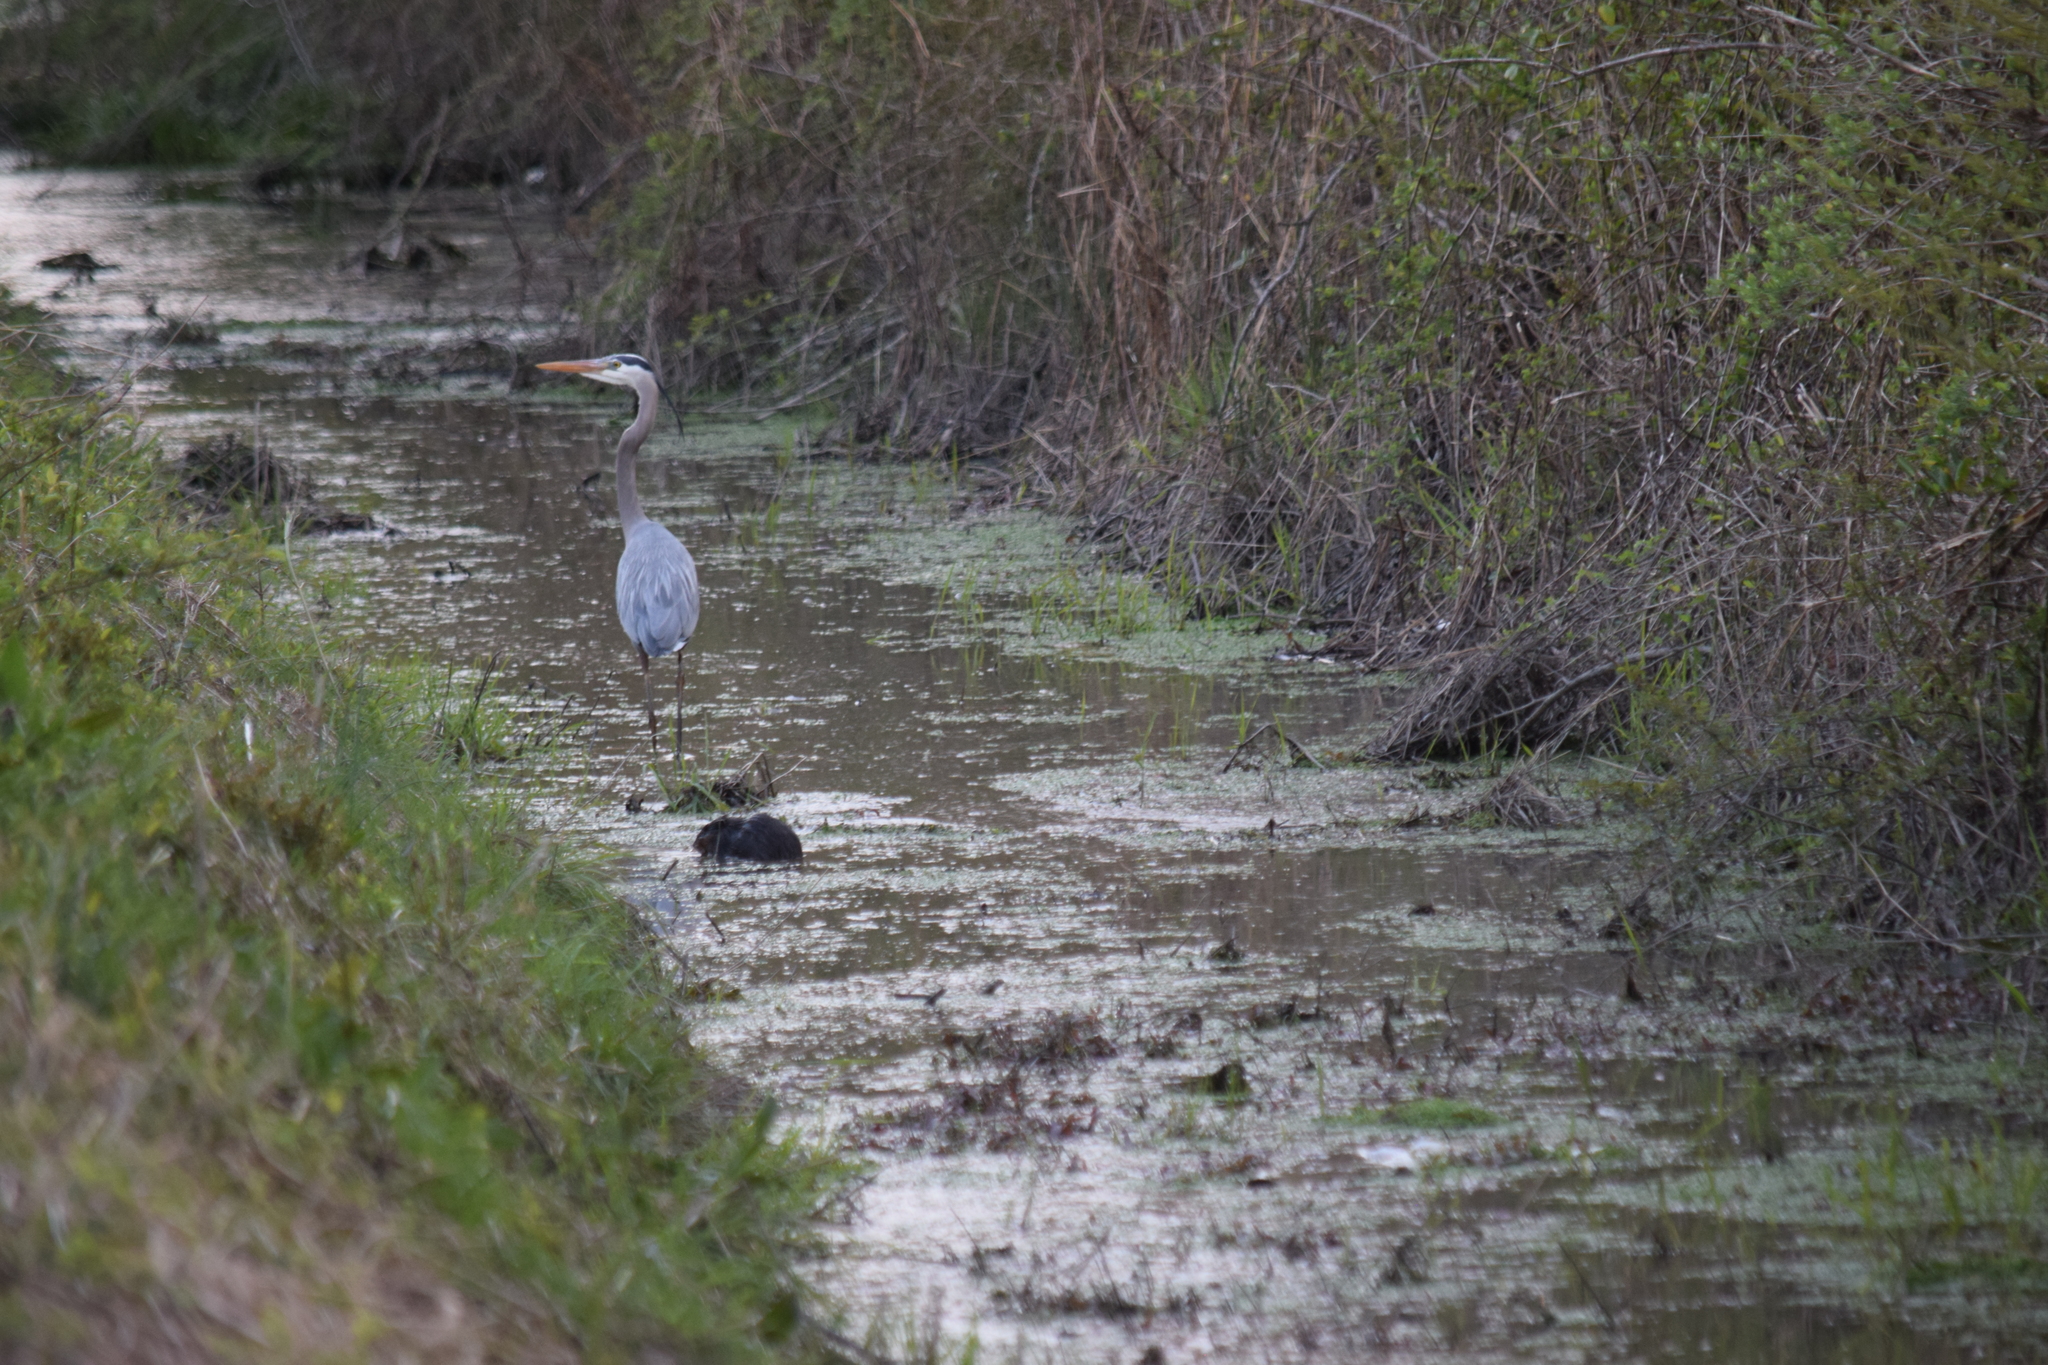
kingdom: Animalia
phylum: Chordata
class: Mammalia
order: Rodentia
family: Cricetidae
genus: Ondatra
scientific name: Ondatra zibethicus
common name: Muskrat
